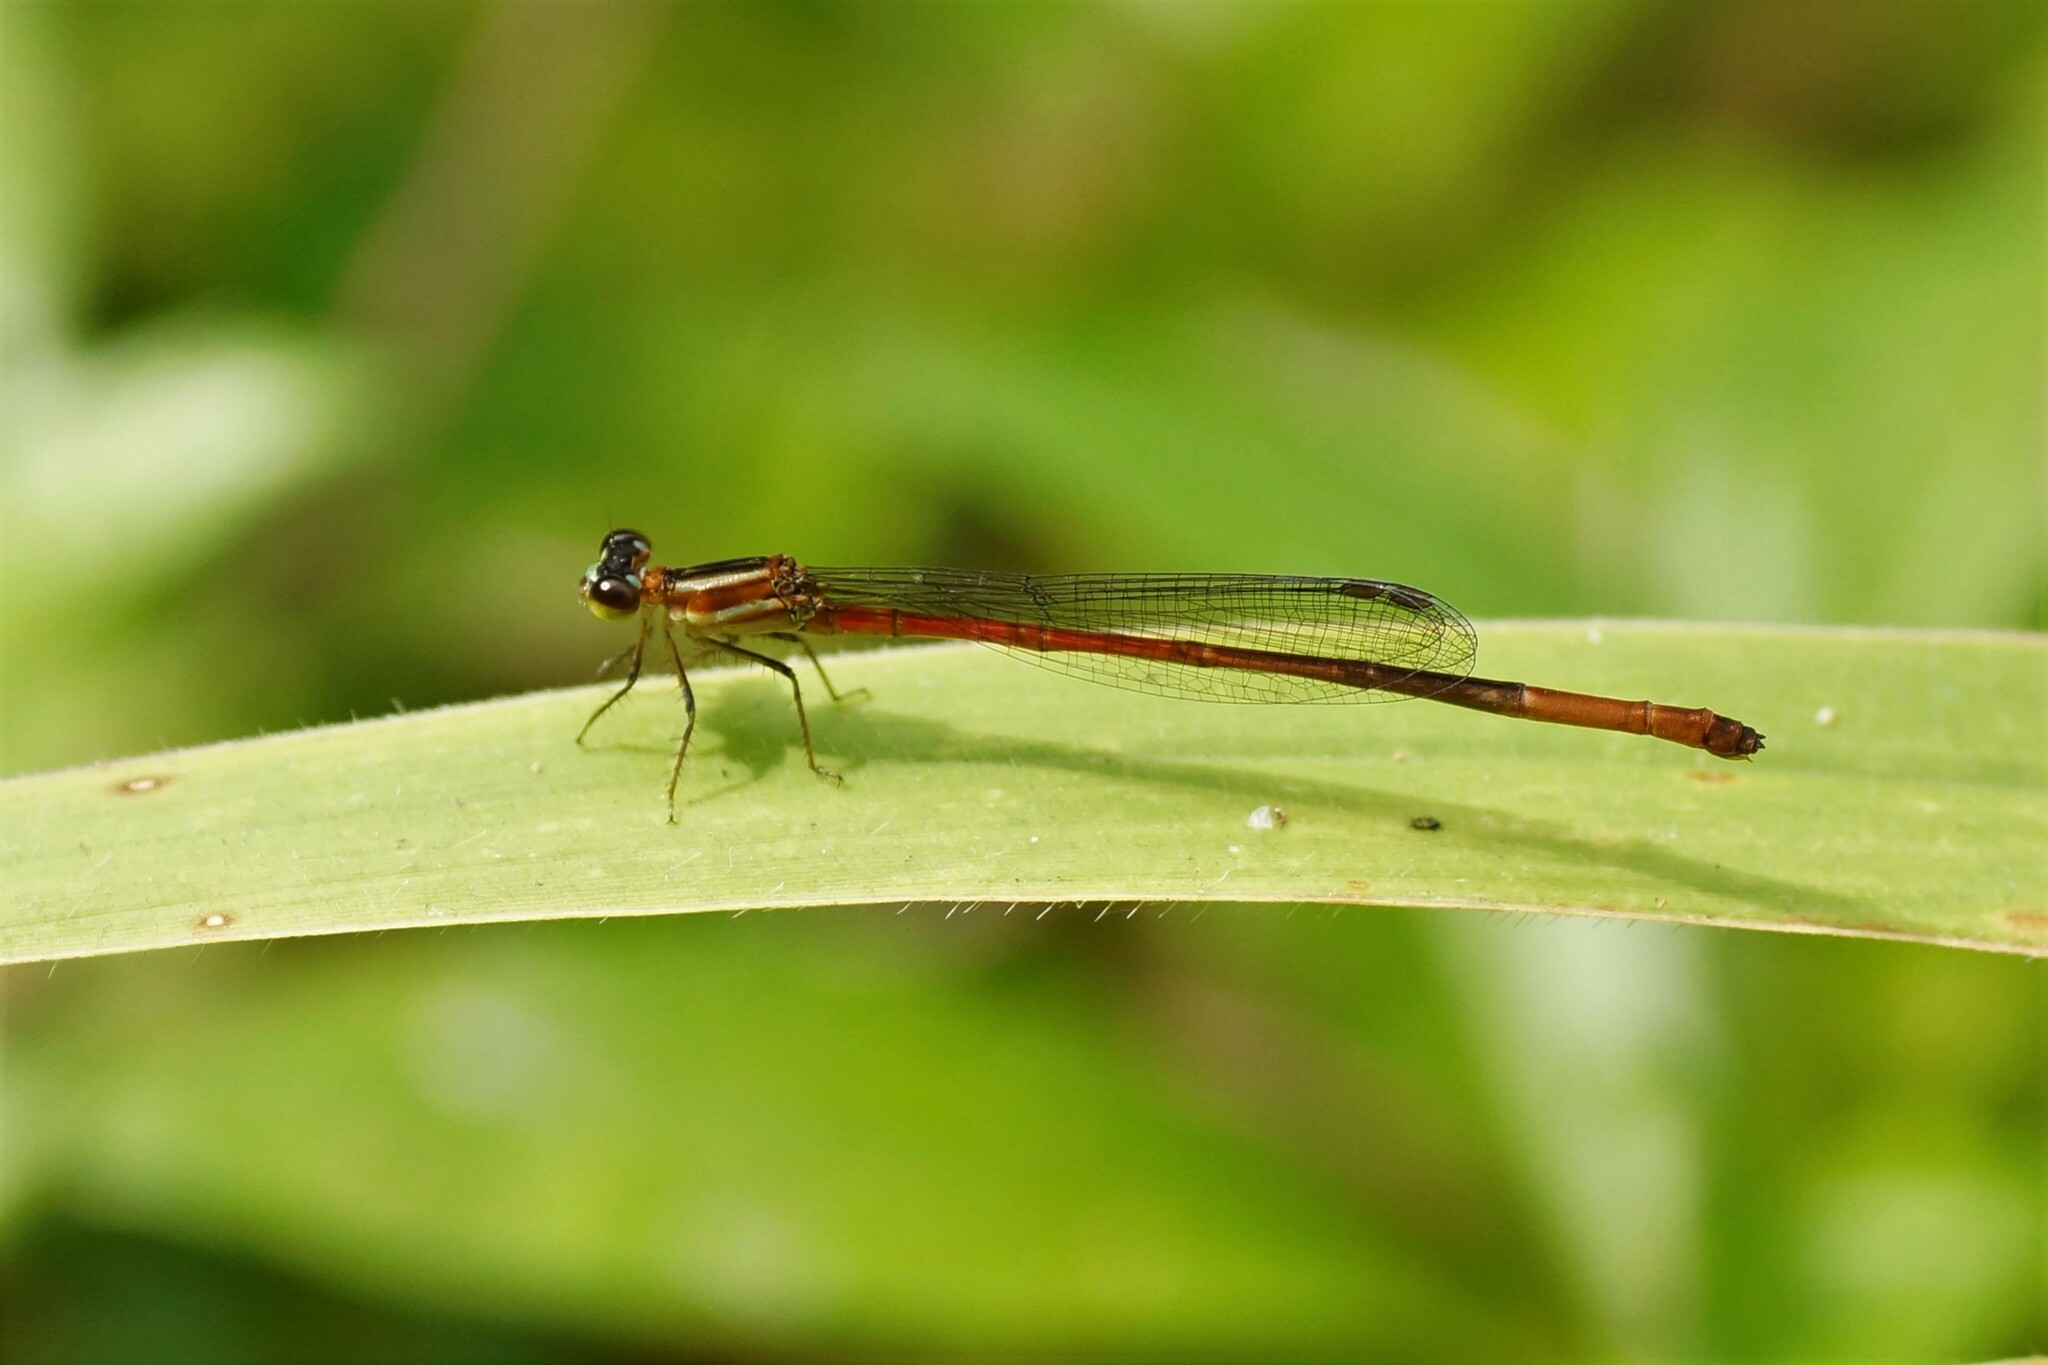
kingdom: Animalia
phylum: Arthropoda
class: Insecta
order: Odonata
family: Coenagrionidae
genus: Argiocnemis
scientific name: Argiocnemis rubescens
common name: Red-tipped shadefly
